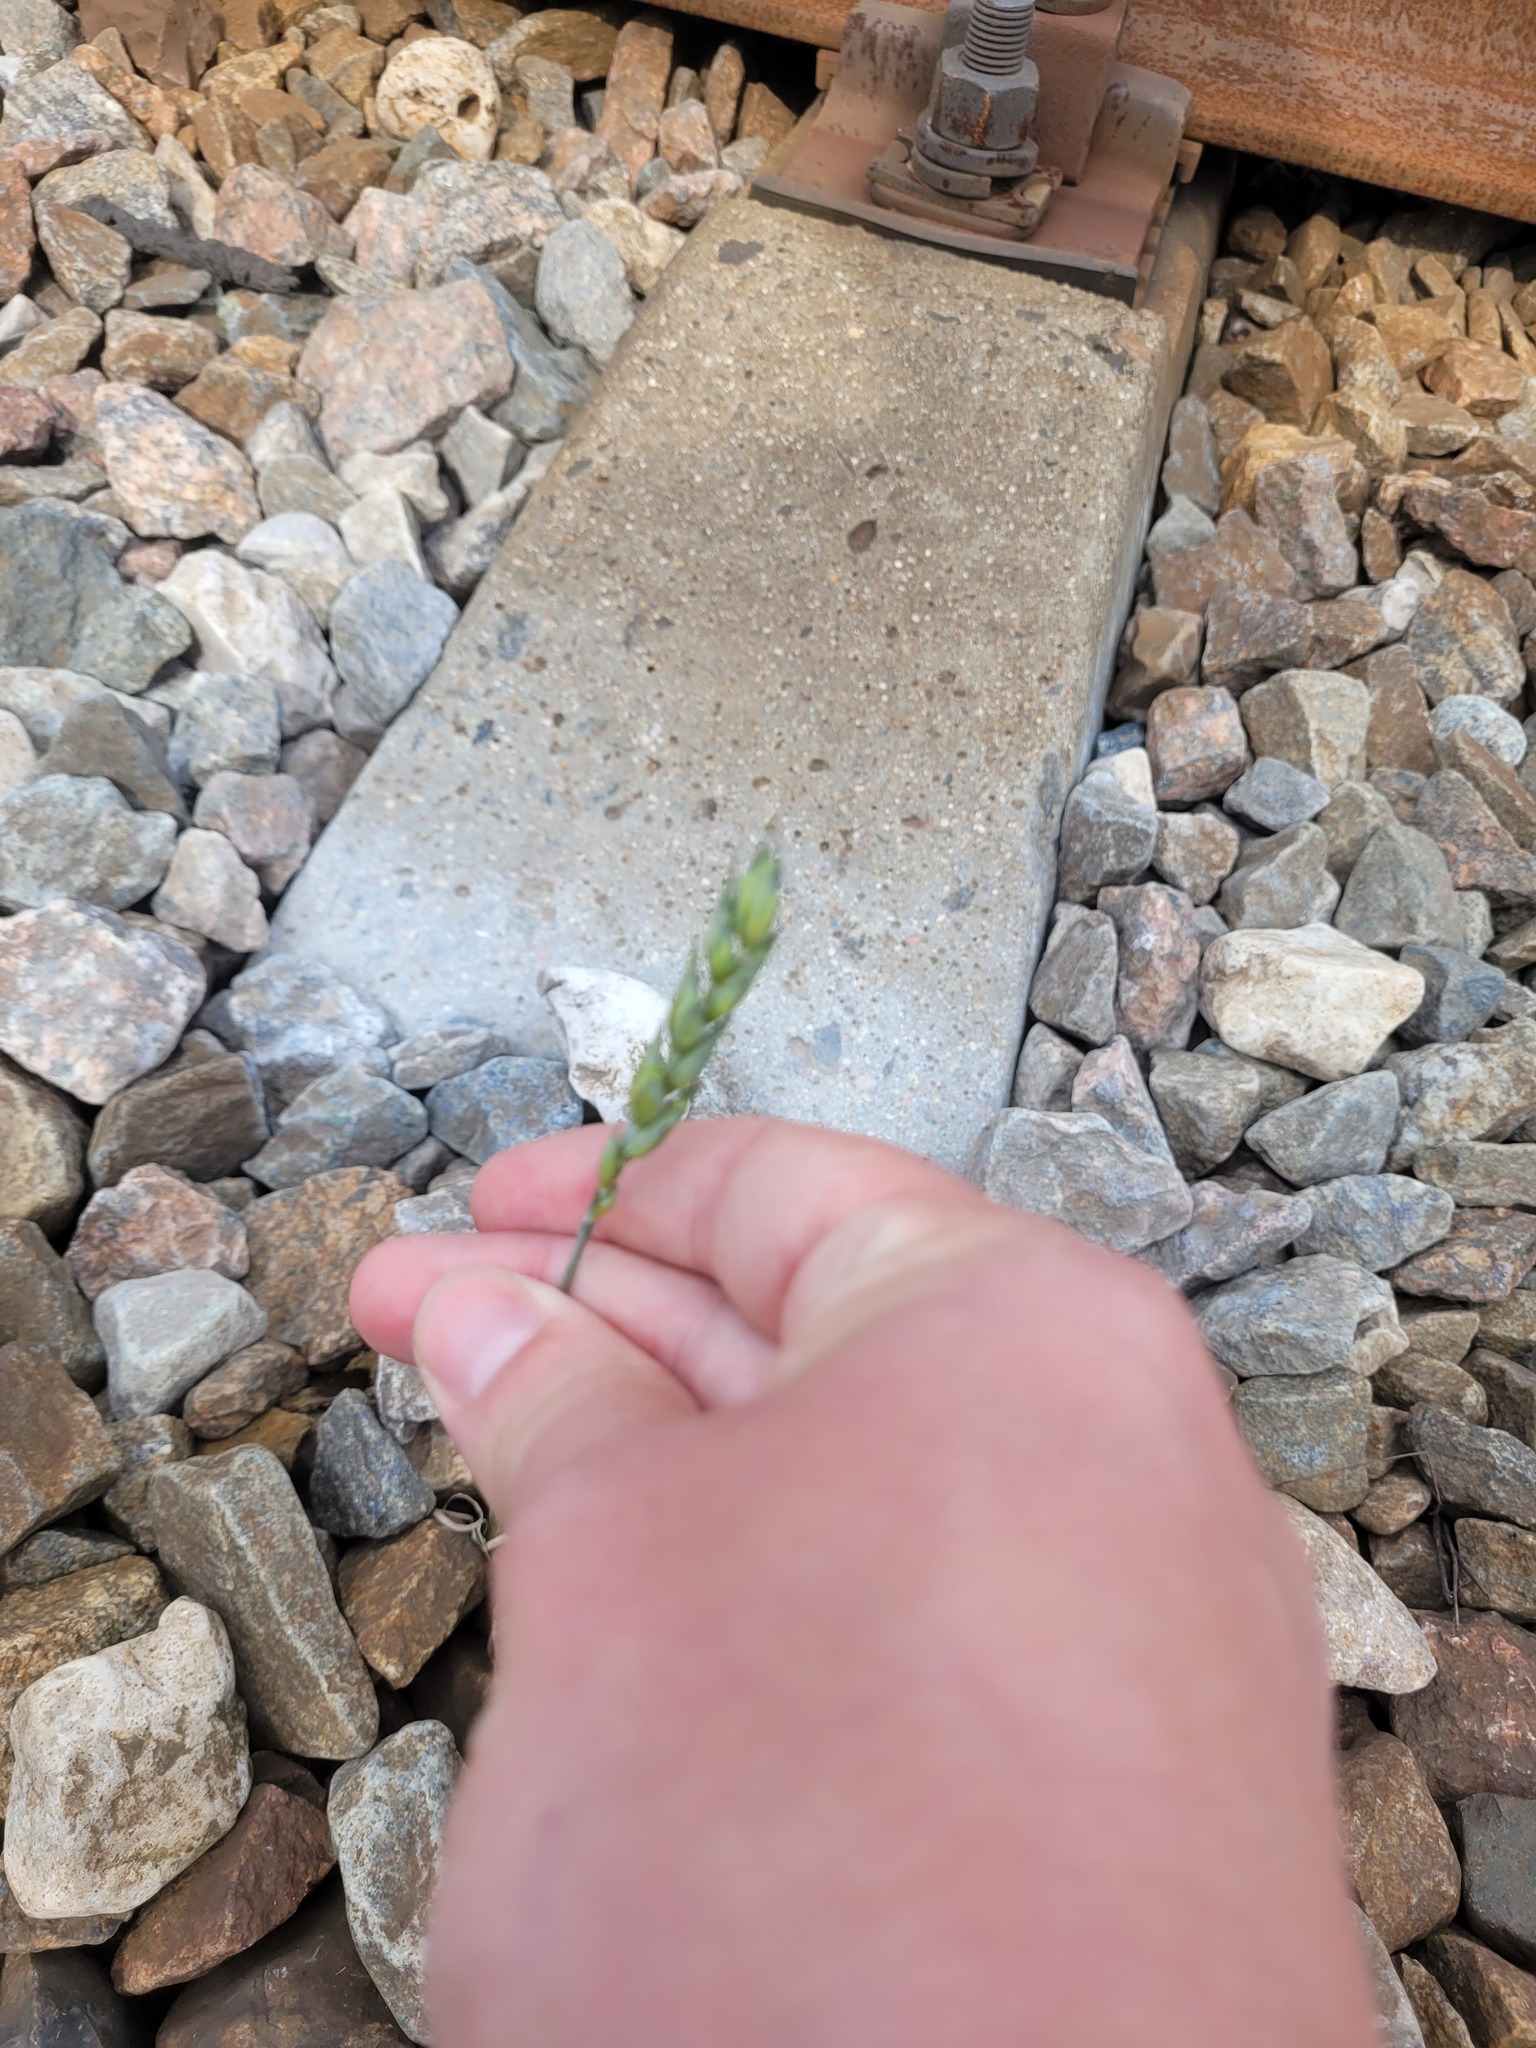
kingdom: Plantae
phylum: Tracheophyta
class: Liliopsida
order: Poales
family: Poaceae
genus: Triticum
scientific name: Triticum aestivum
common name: Common wheat
